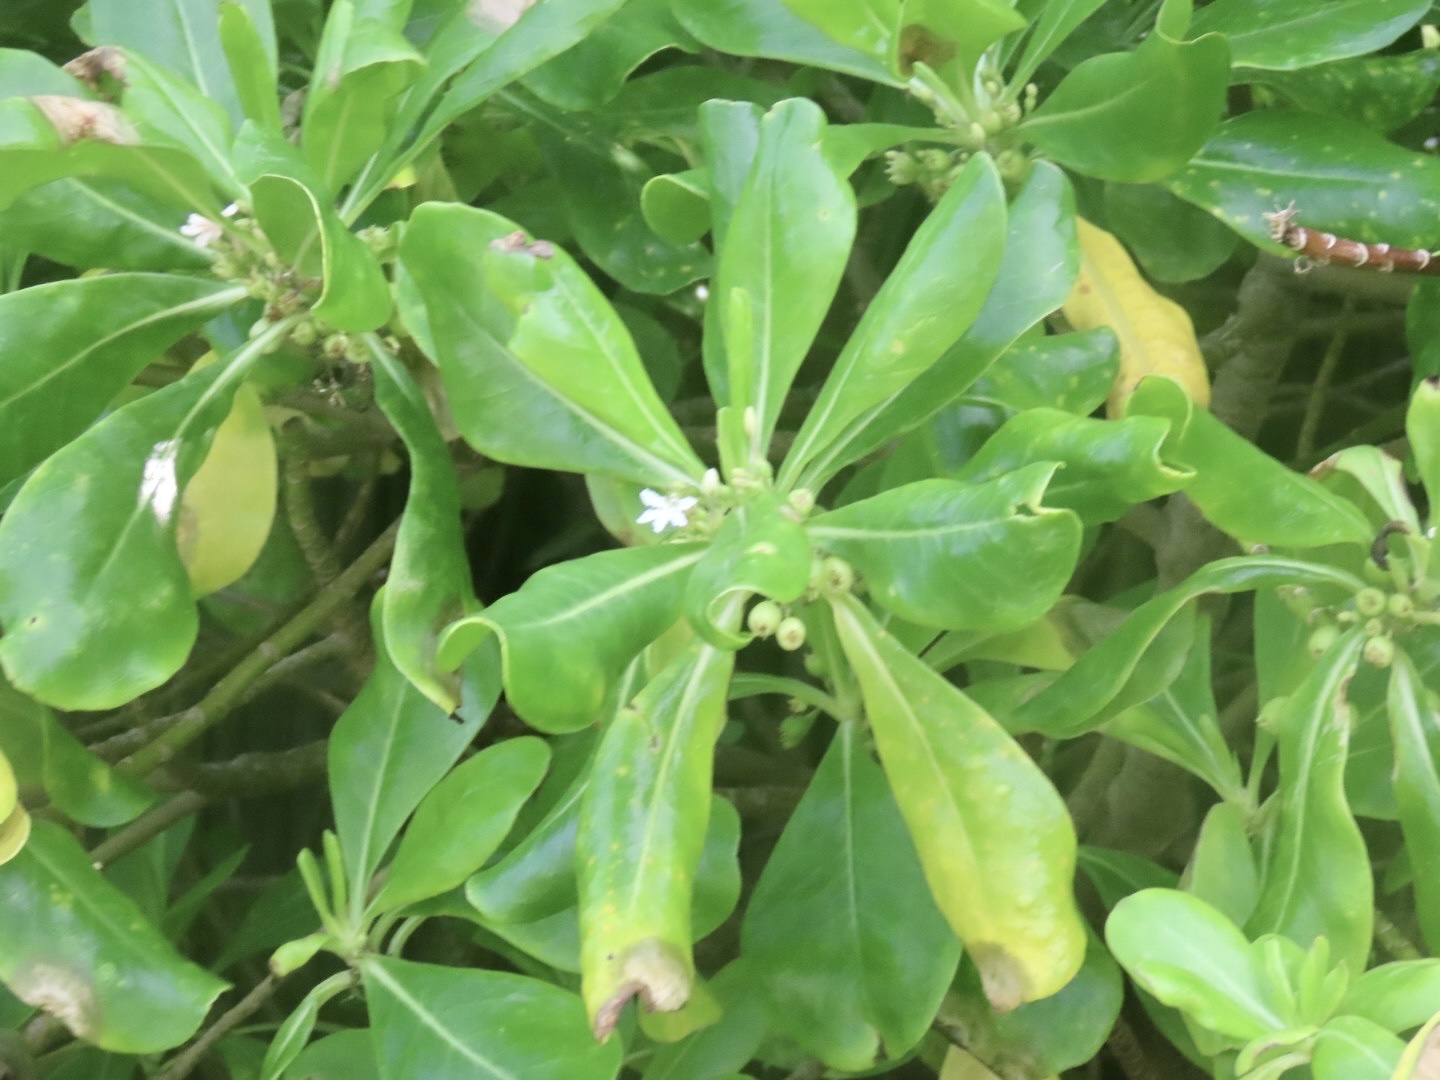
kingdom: Plantae
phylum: Tracheophyta
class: Magnoliopsida
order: Asterales
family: Goodeniaceae
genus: Scaevola
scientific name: Scaevola taccada
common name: Sea lettucetree
